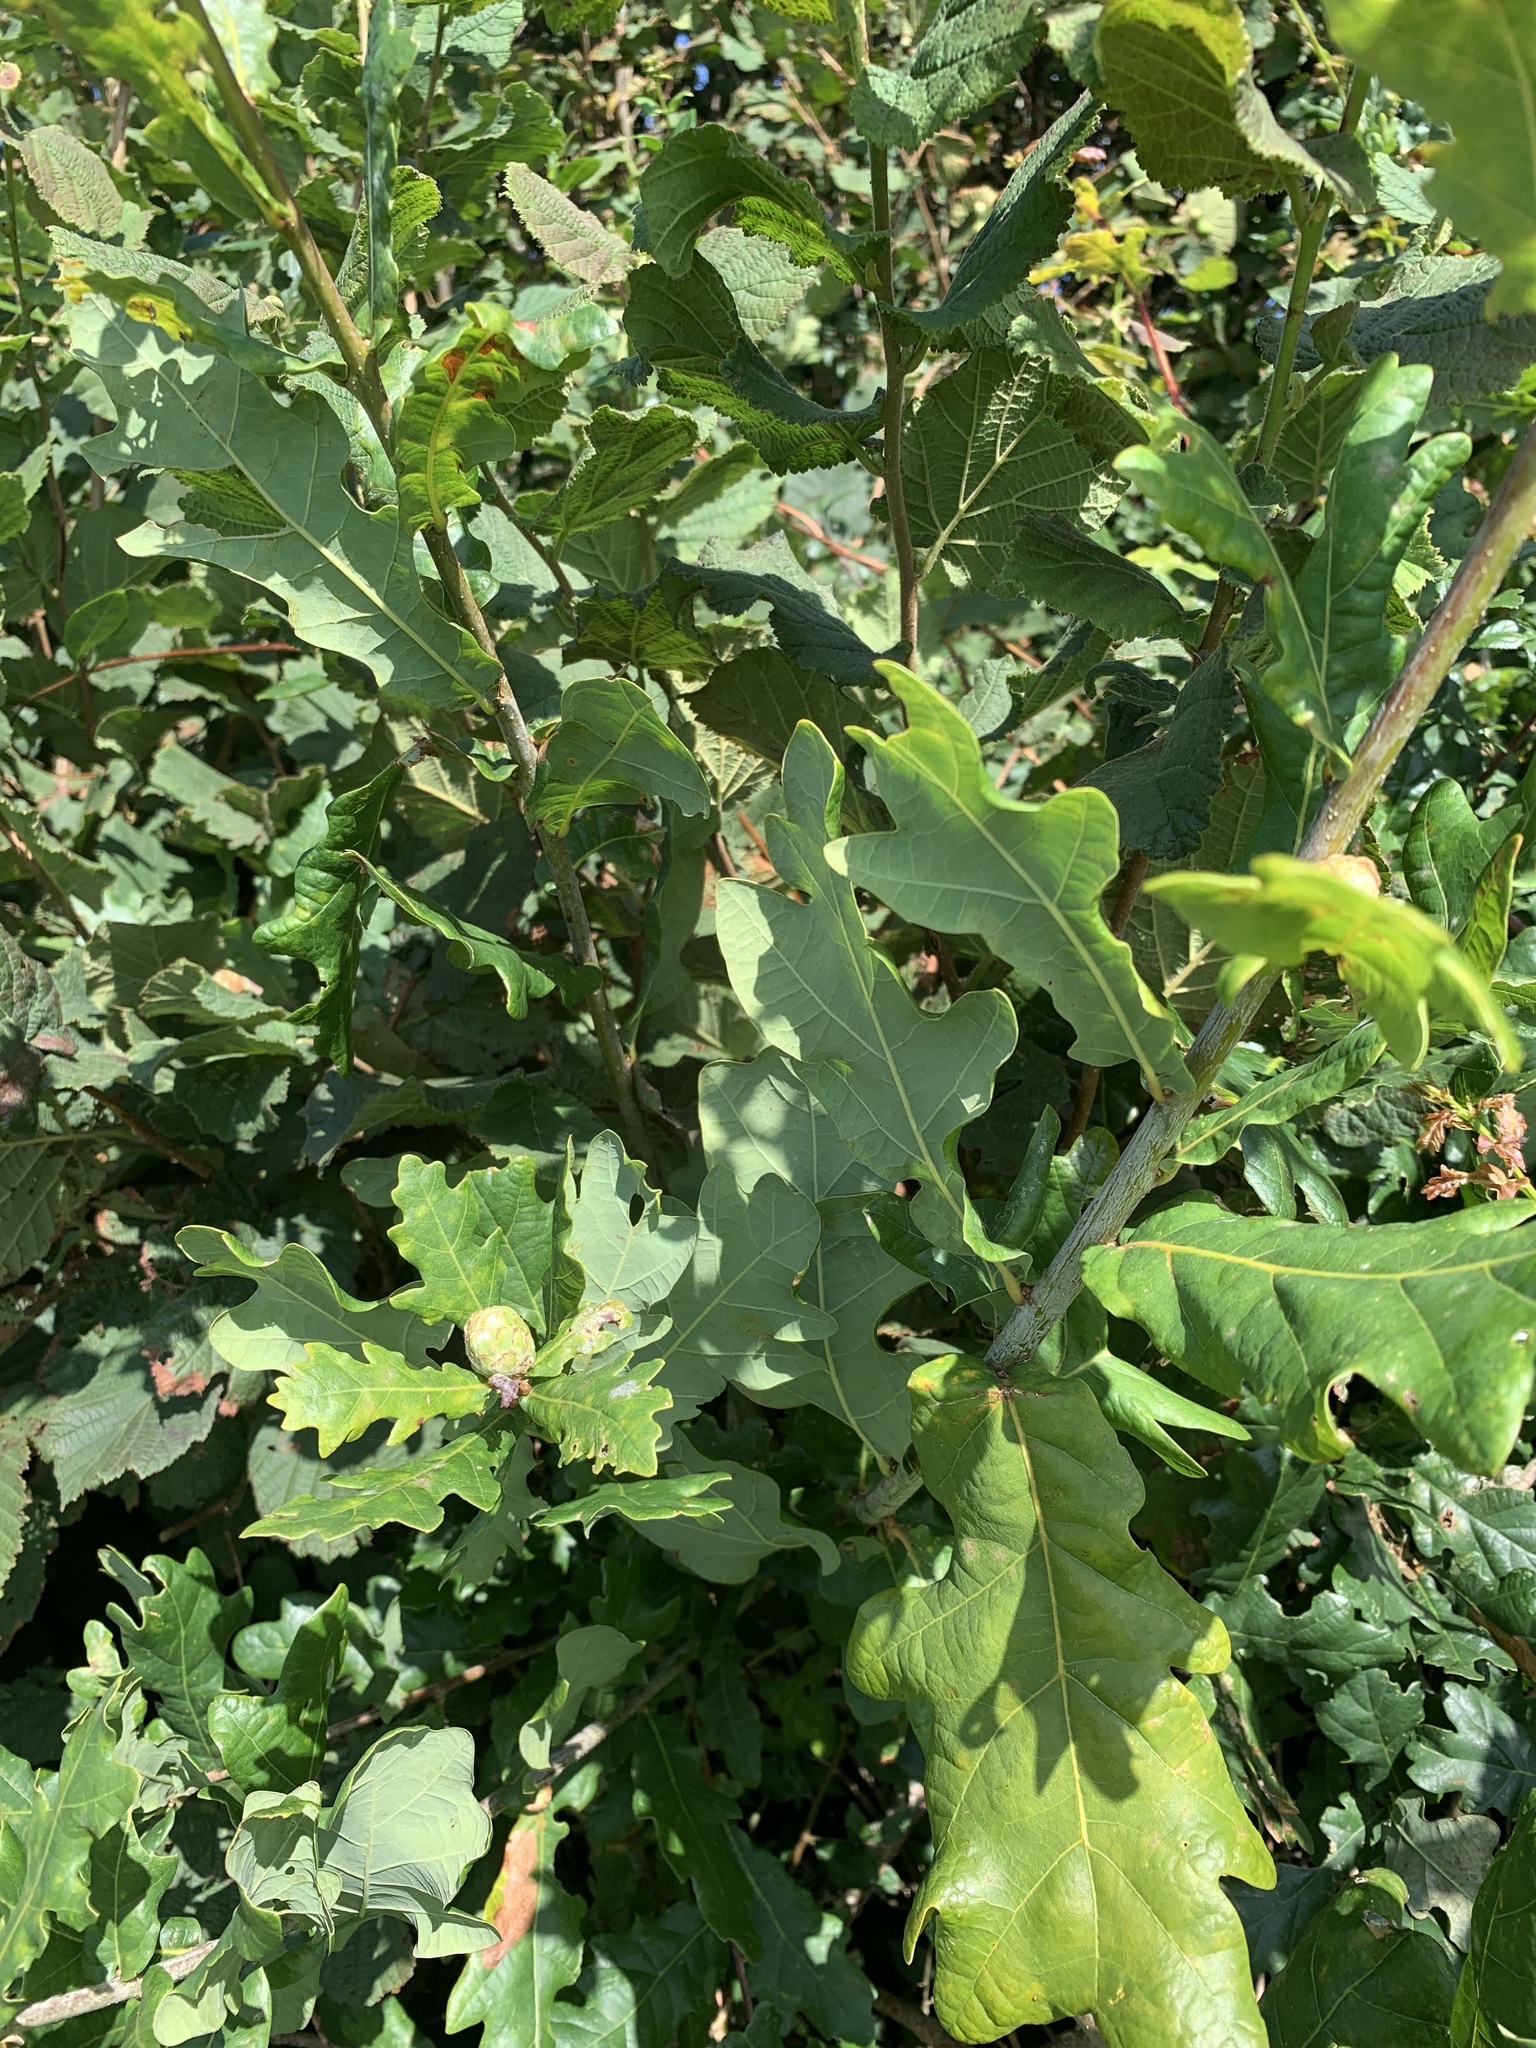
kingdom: Plantae
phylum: Tracheophyta
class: Magnoliopsida
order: Fagales
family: Fagaceae
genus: Quercus
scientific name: Quercus robur
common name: Pedunculate oak
